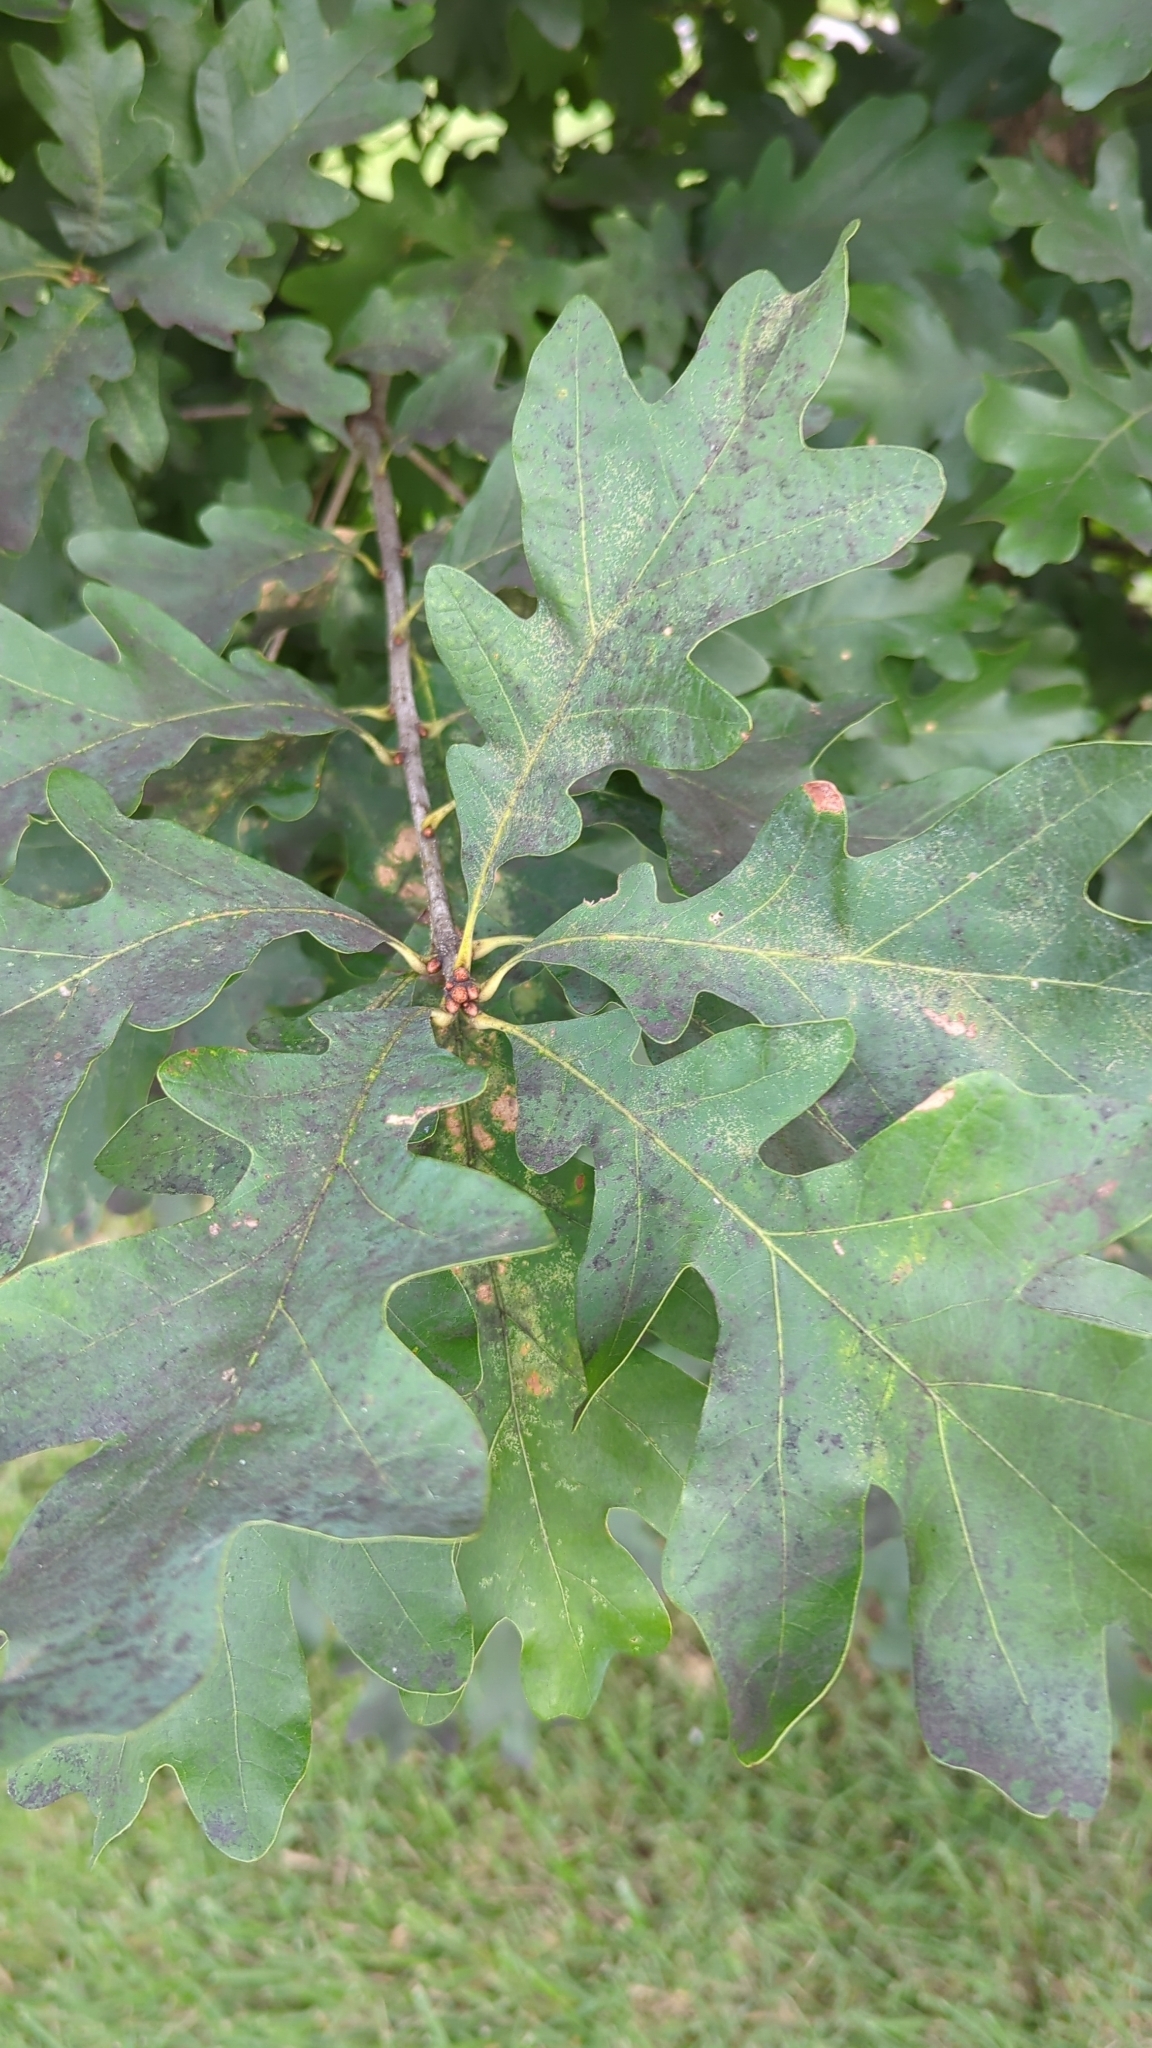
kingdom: Plantae
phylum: Tracheophyta
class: Magnoliopsida
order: Fagales
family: Fagaceae
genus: Quercus
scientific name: Quercus alba
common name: White oak
